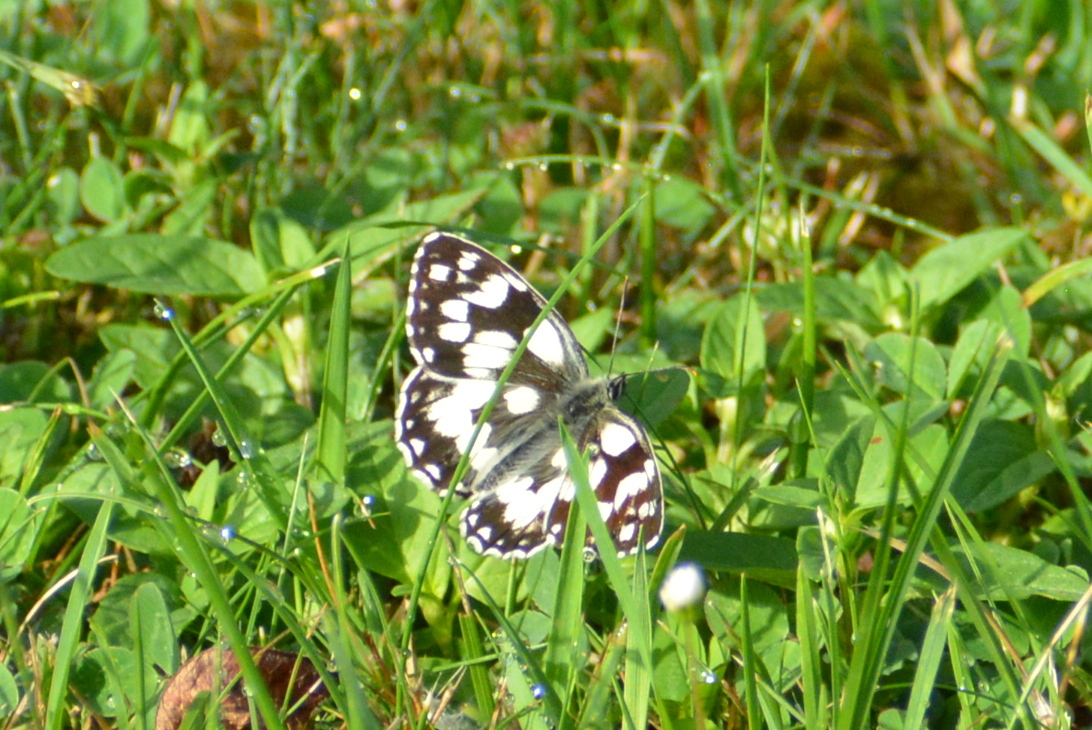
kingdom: Animalia
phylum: Arthropoda
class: Insecta
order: Lepidoptera
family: Nymphalidae
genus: Melanargia
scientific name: Melanargia galathea
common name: Marbled white
